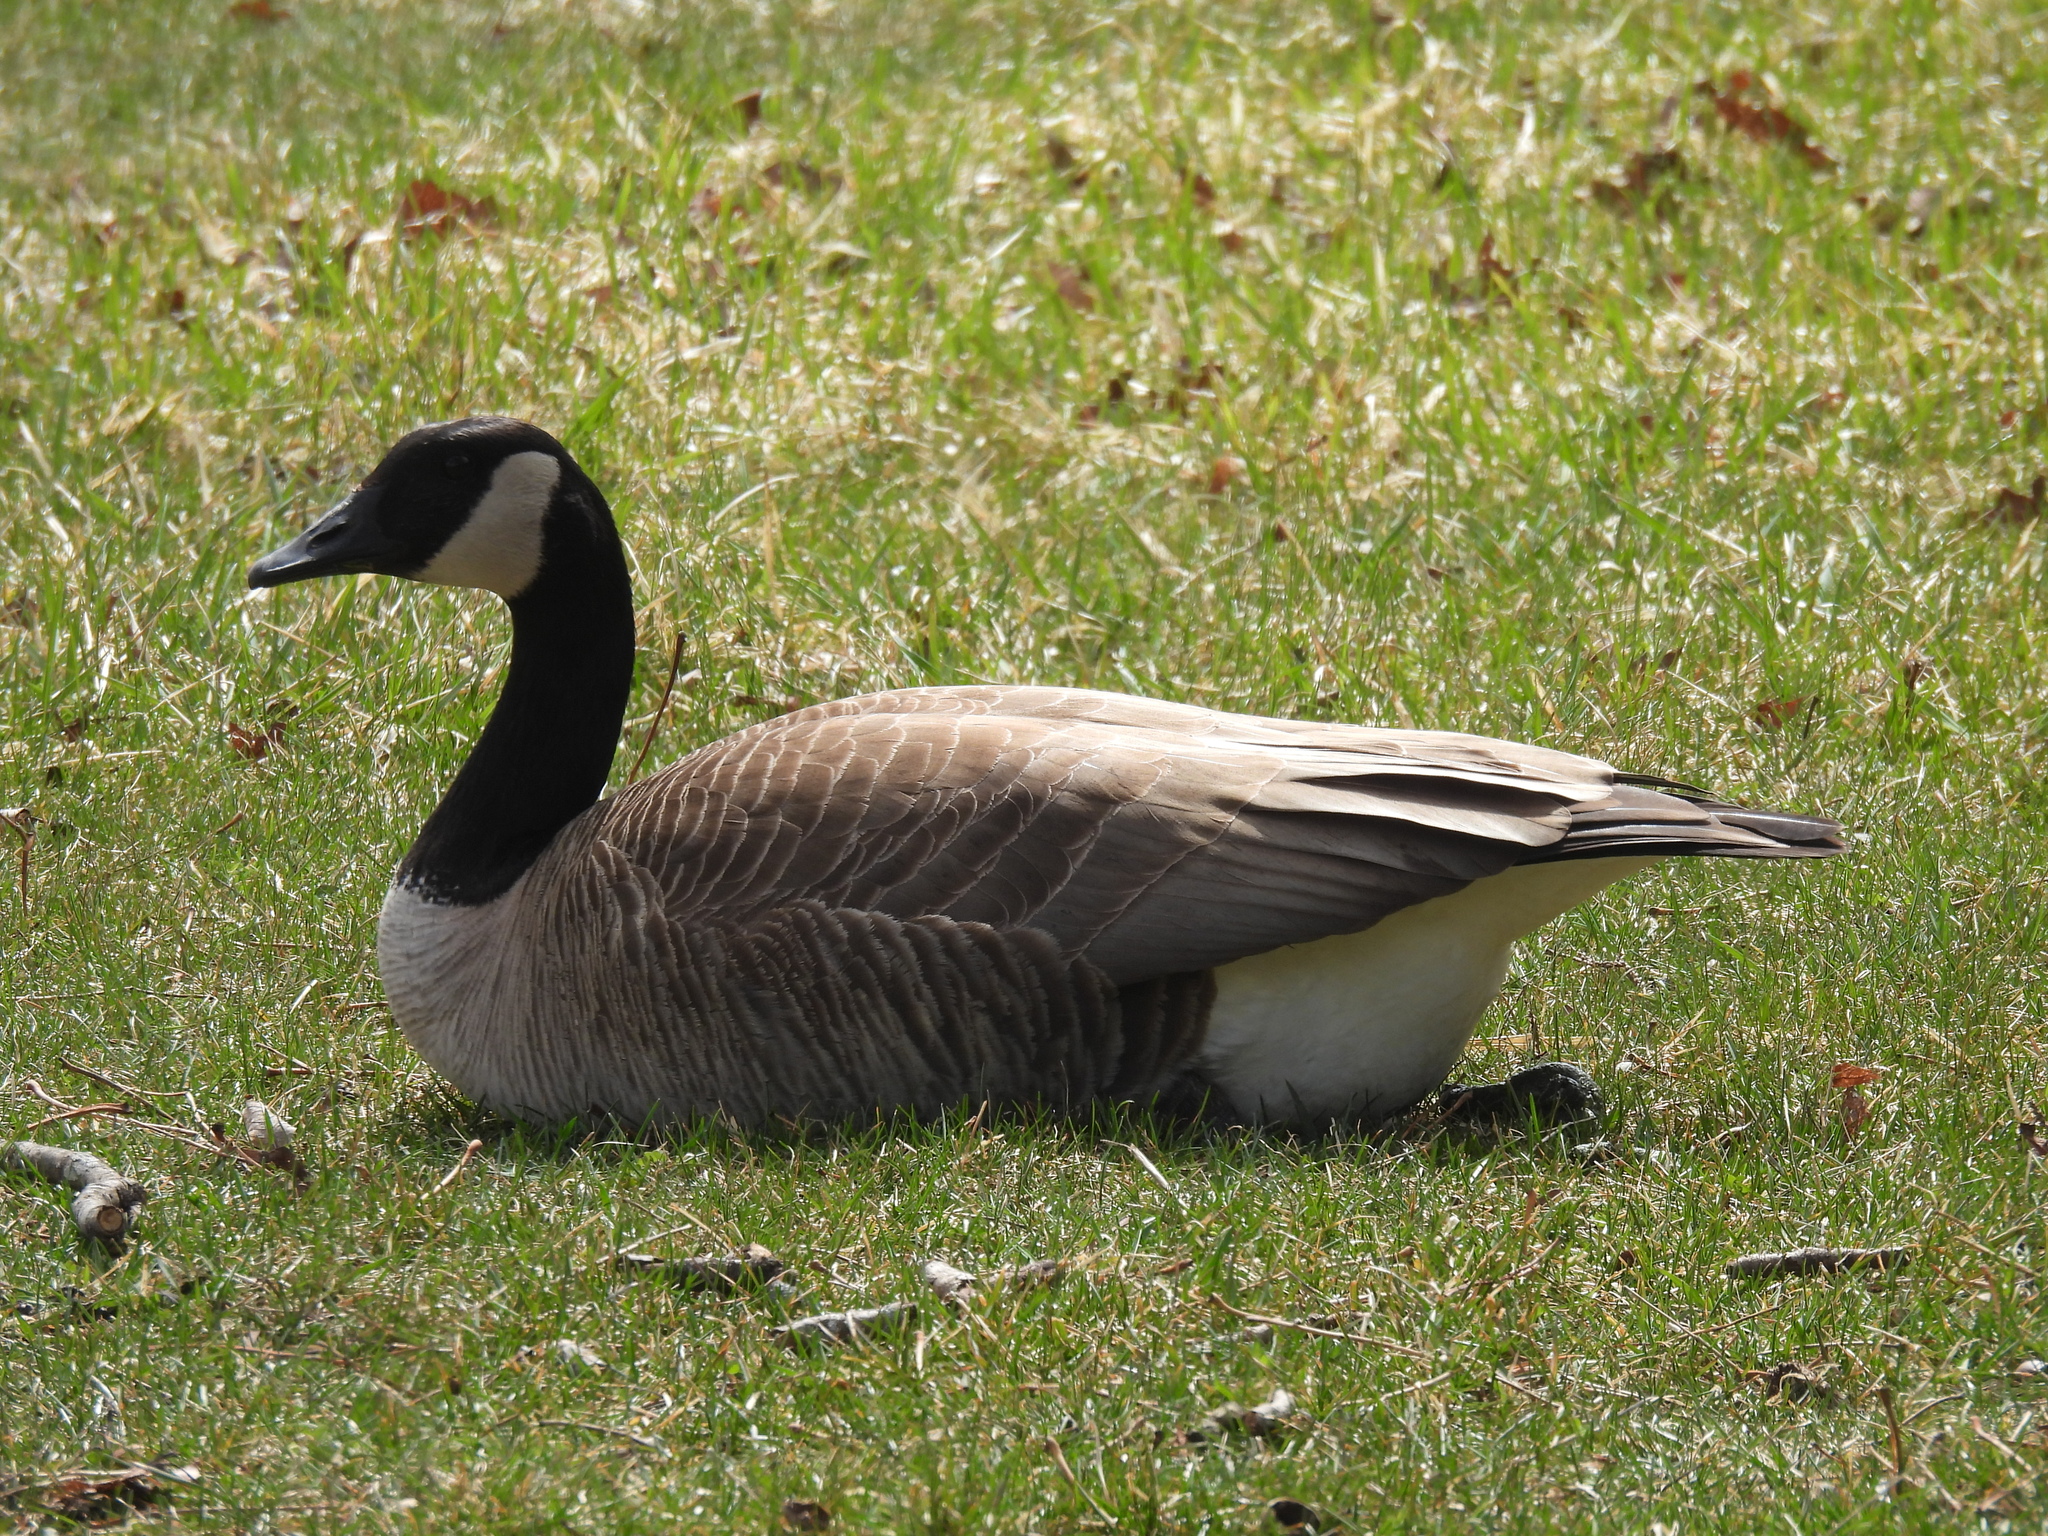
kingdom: Animalia
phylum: Chordata
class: Aves
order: Anseriformes
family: Anatidae
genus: Branta
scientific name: Branta canadensis
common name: Canada goose
